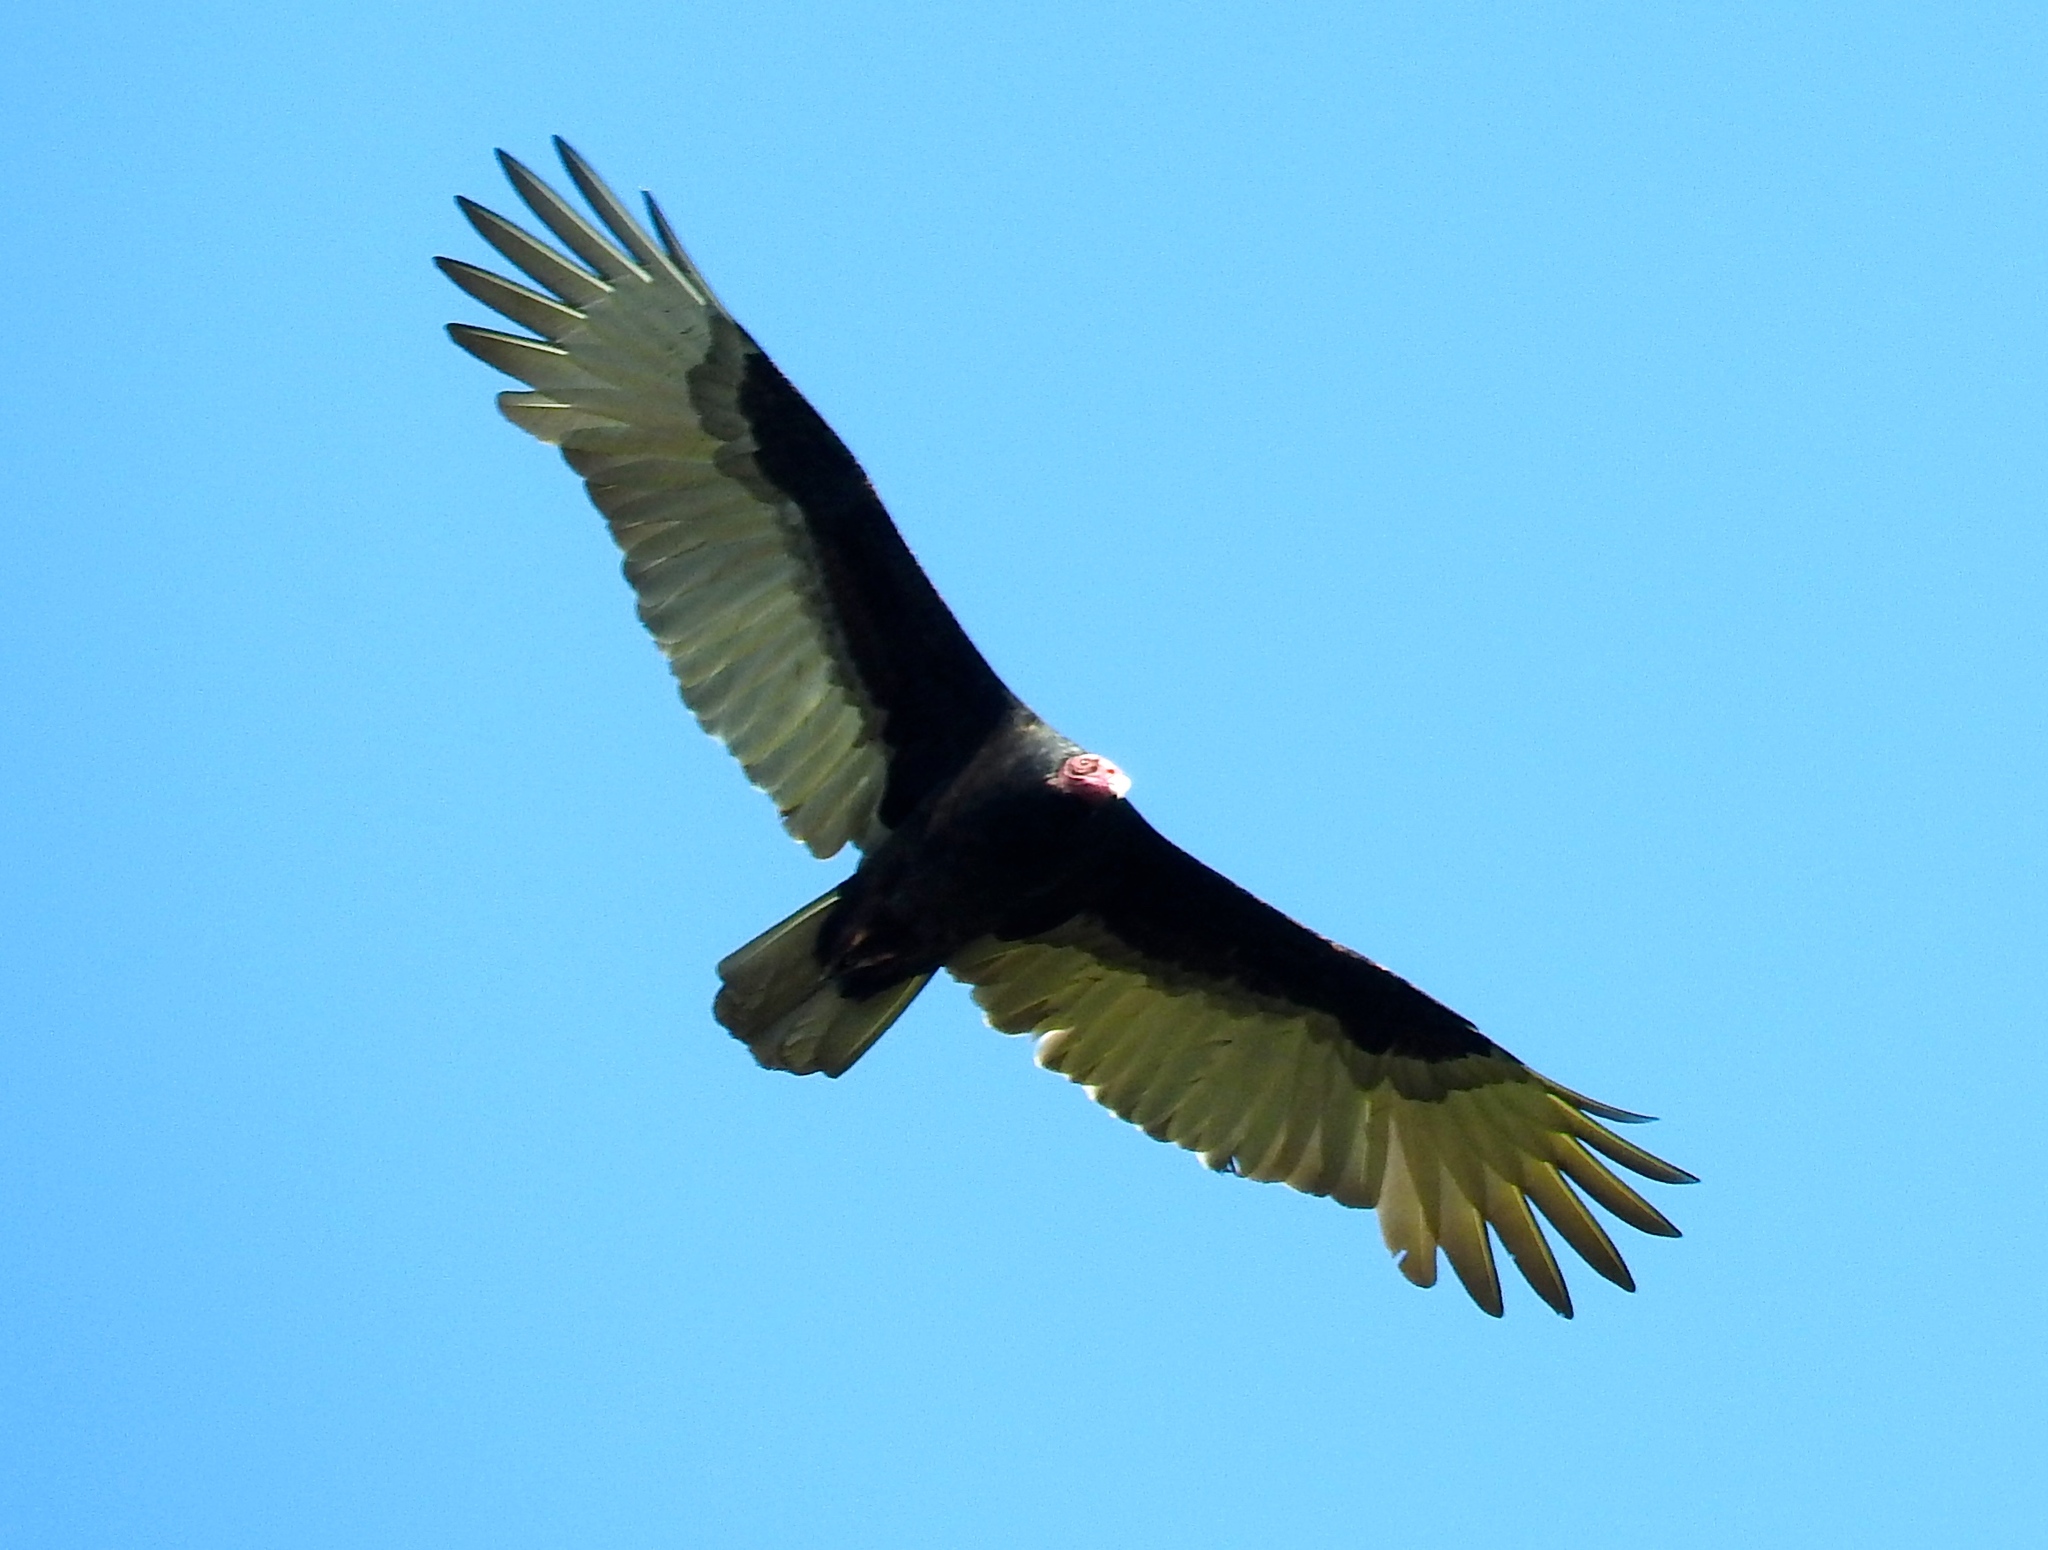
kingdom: Animalia
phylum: Chordata
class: Aves
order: Accipitriformes
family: Cathartidae
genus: Cathartes
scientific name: Cathartes aura
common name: Turkey vulture
